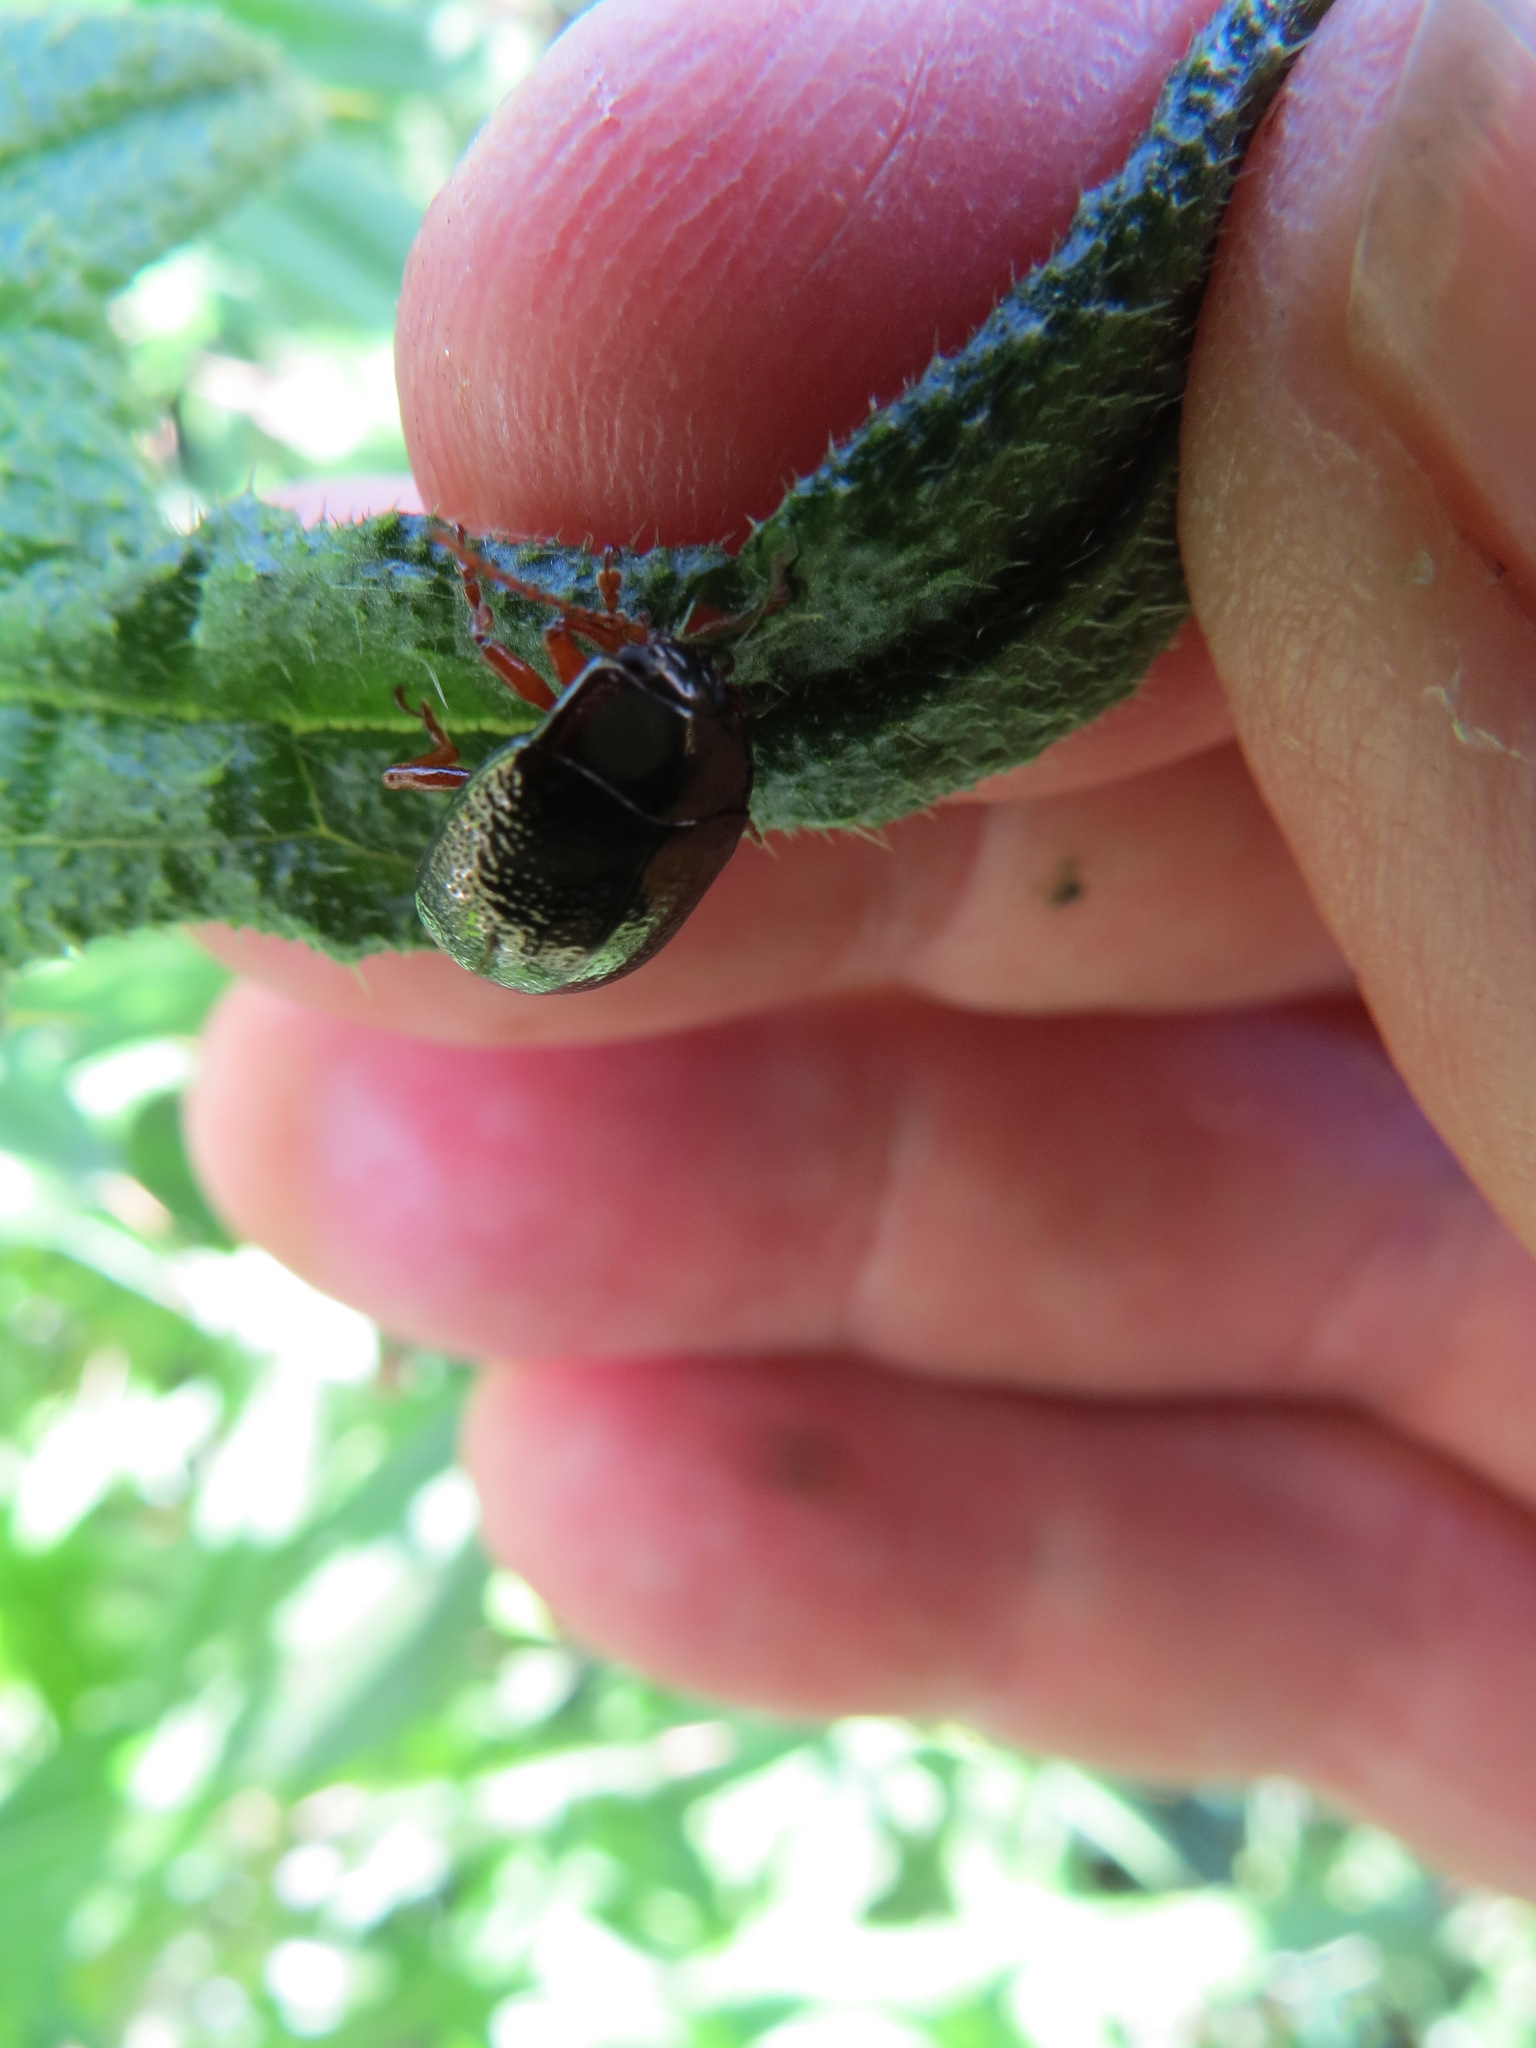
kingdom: Animalia
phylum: Arthropoda
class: Insecta
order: Coleoptera
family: Chrysomelidae
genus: Chrysolina
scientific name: Chrysolina bankii
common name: Leaf beetle
